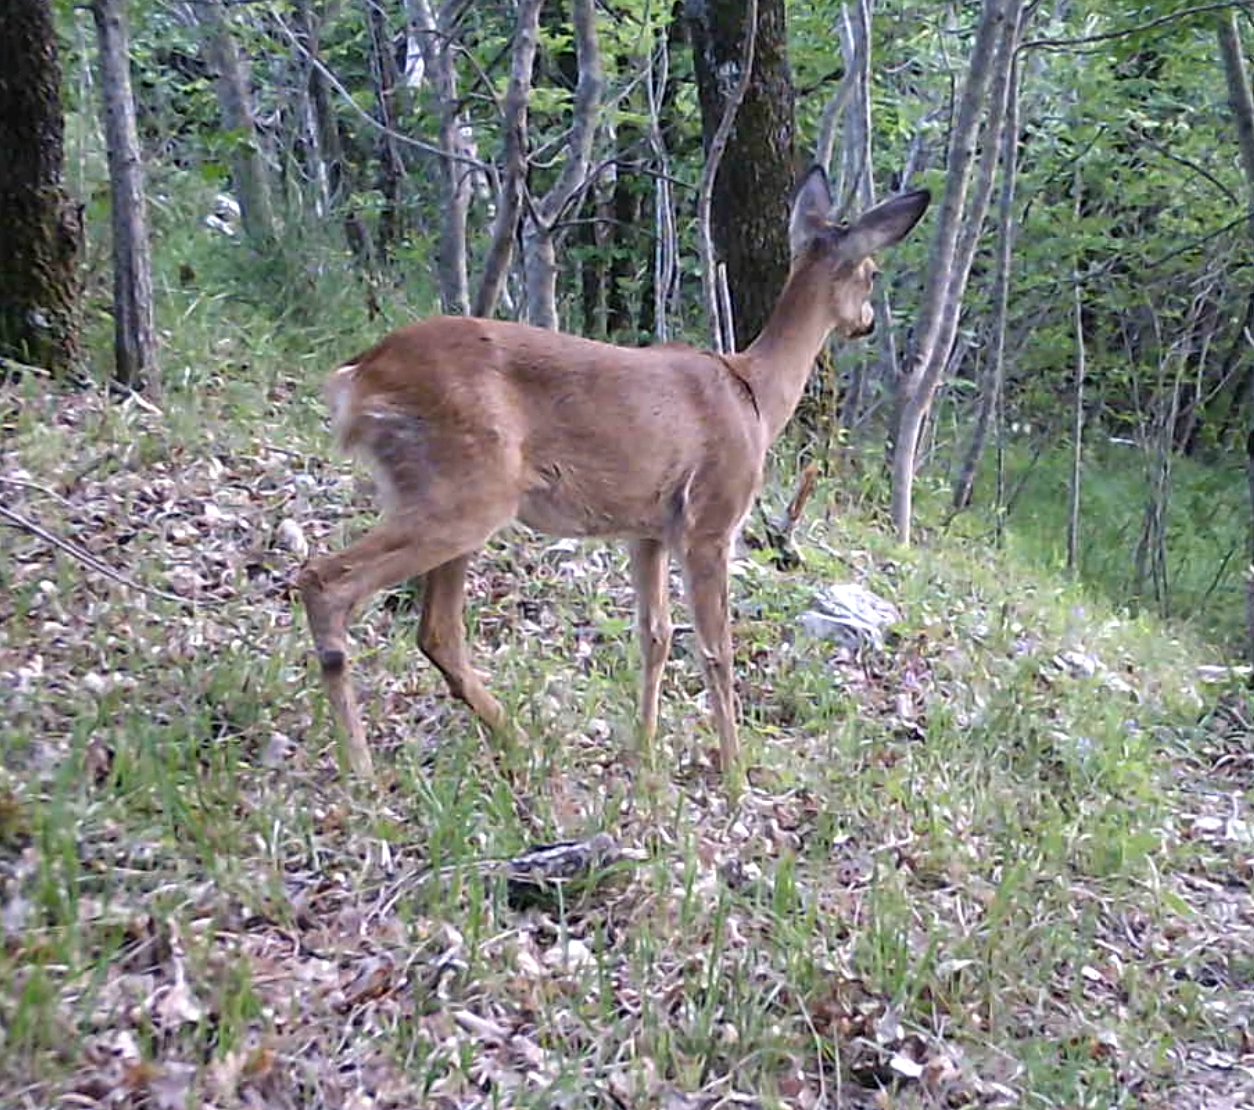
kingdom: Animalia
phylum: Chordata
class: Mammalia
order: Artiodactyla
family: Cervidae
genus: Capreolus
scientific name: Capreolus capreolus
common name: Western roe deer
